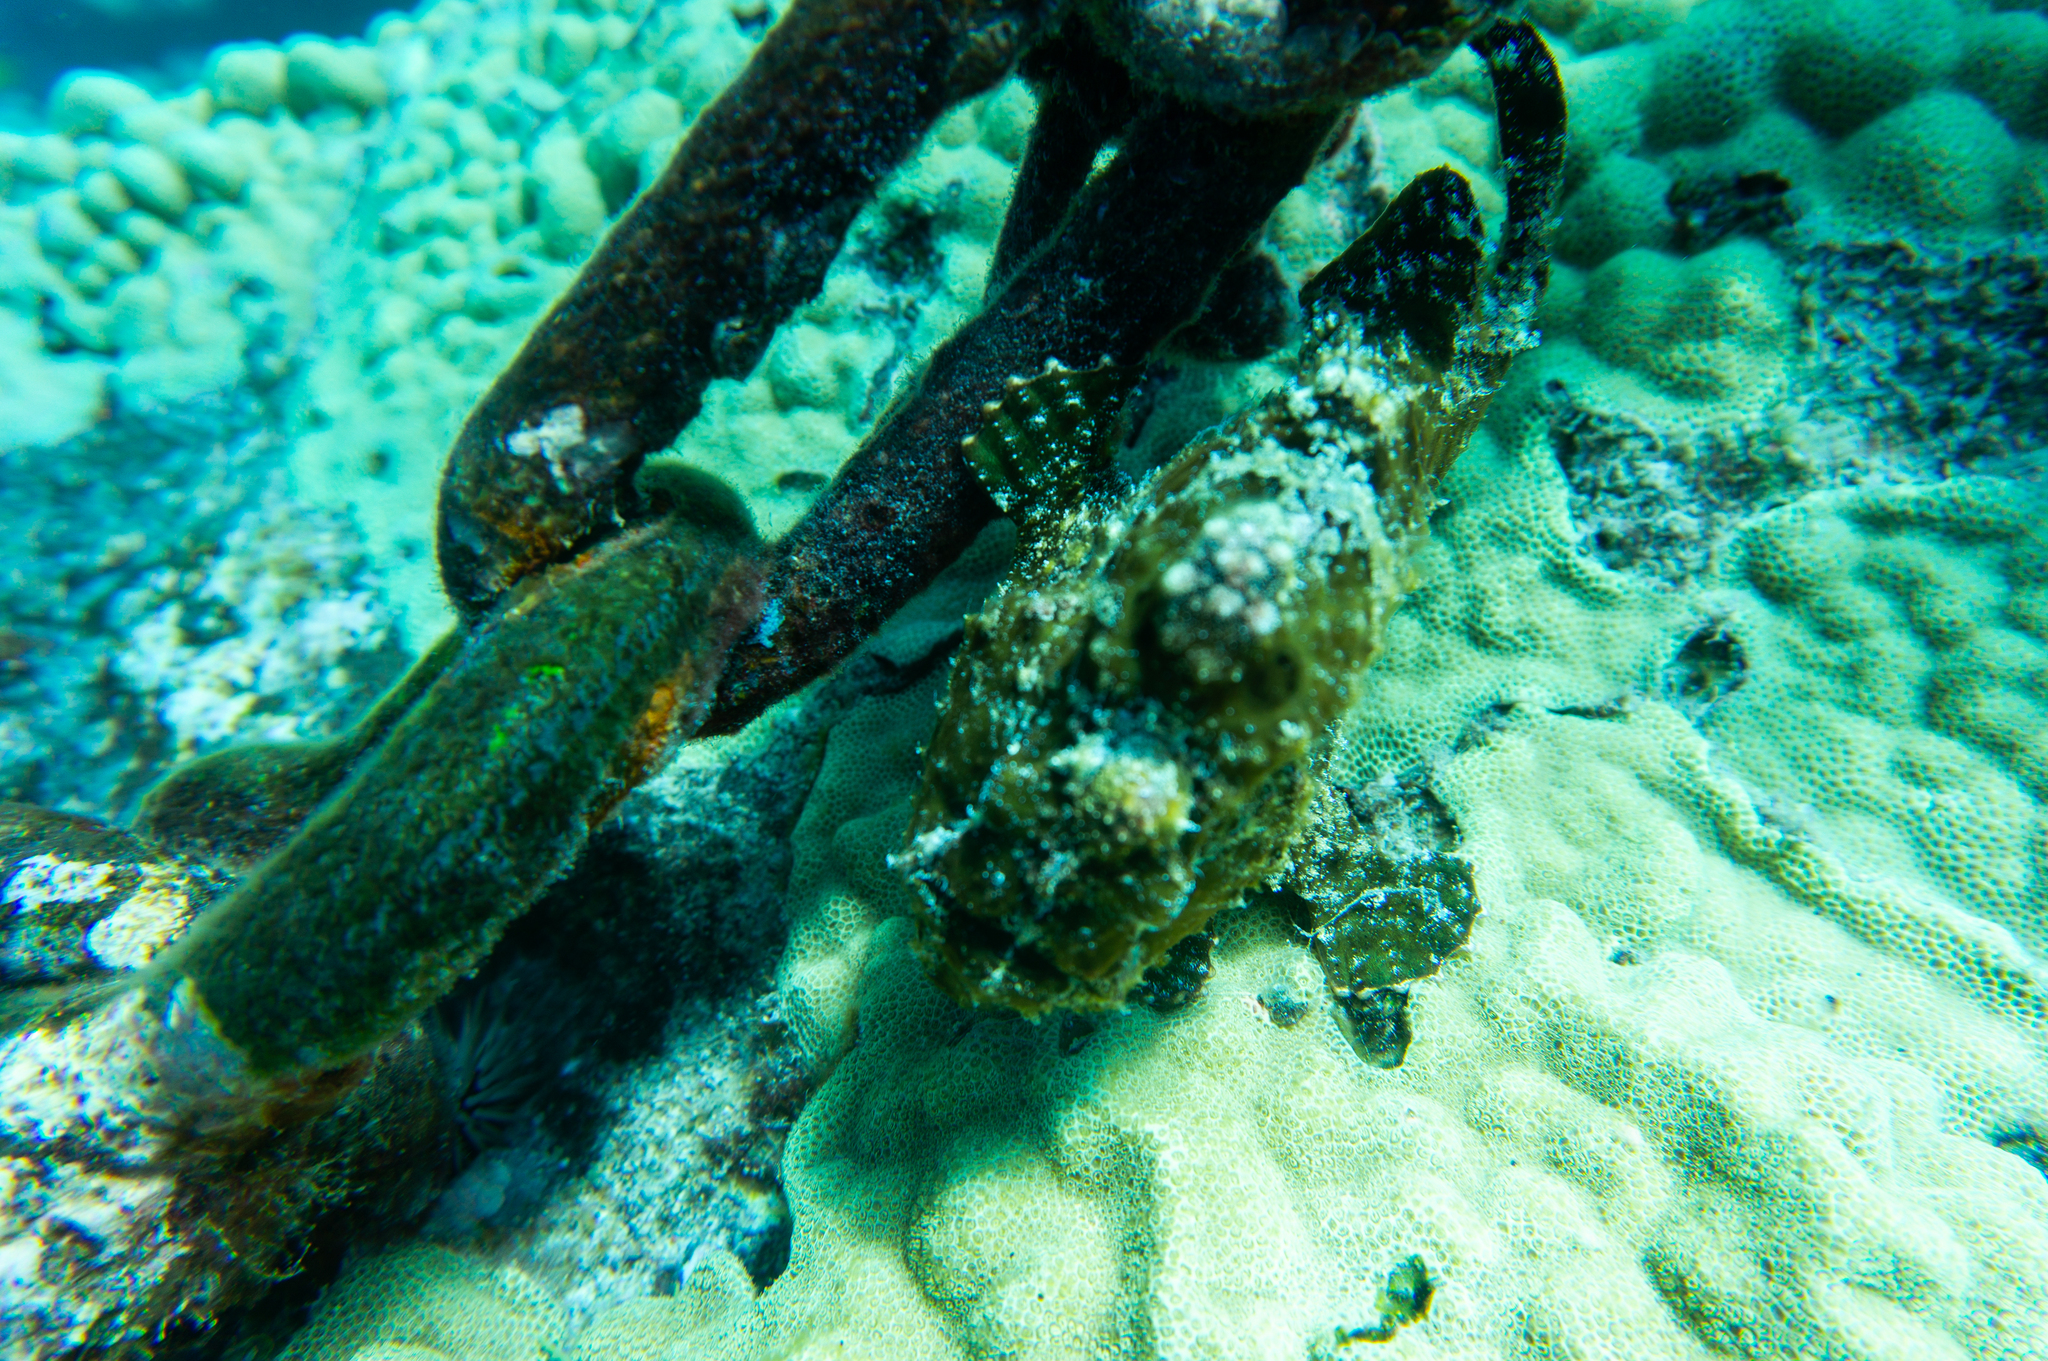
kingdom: Animalia
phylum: Chordata
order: Lophiiformes
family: Antennariidae
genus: Antennarius
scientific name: Antennarius commerson
